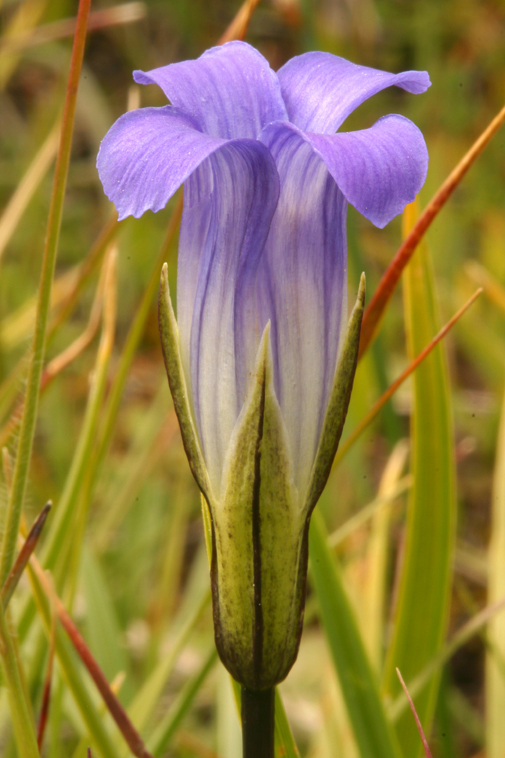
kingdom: Plantae
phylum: Tracheophyta
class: Magnoliopsida
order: Gentianales
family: Gentianaceae
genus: Gentianopsis
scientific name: Gentianopsis holopetala
